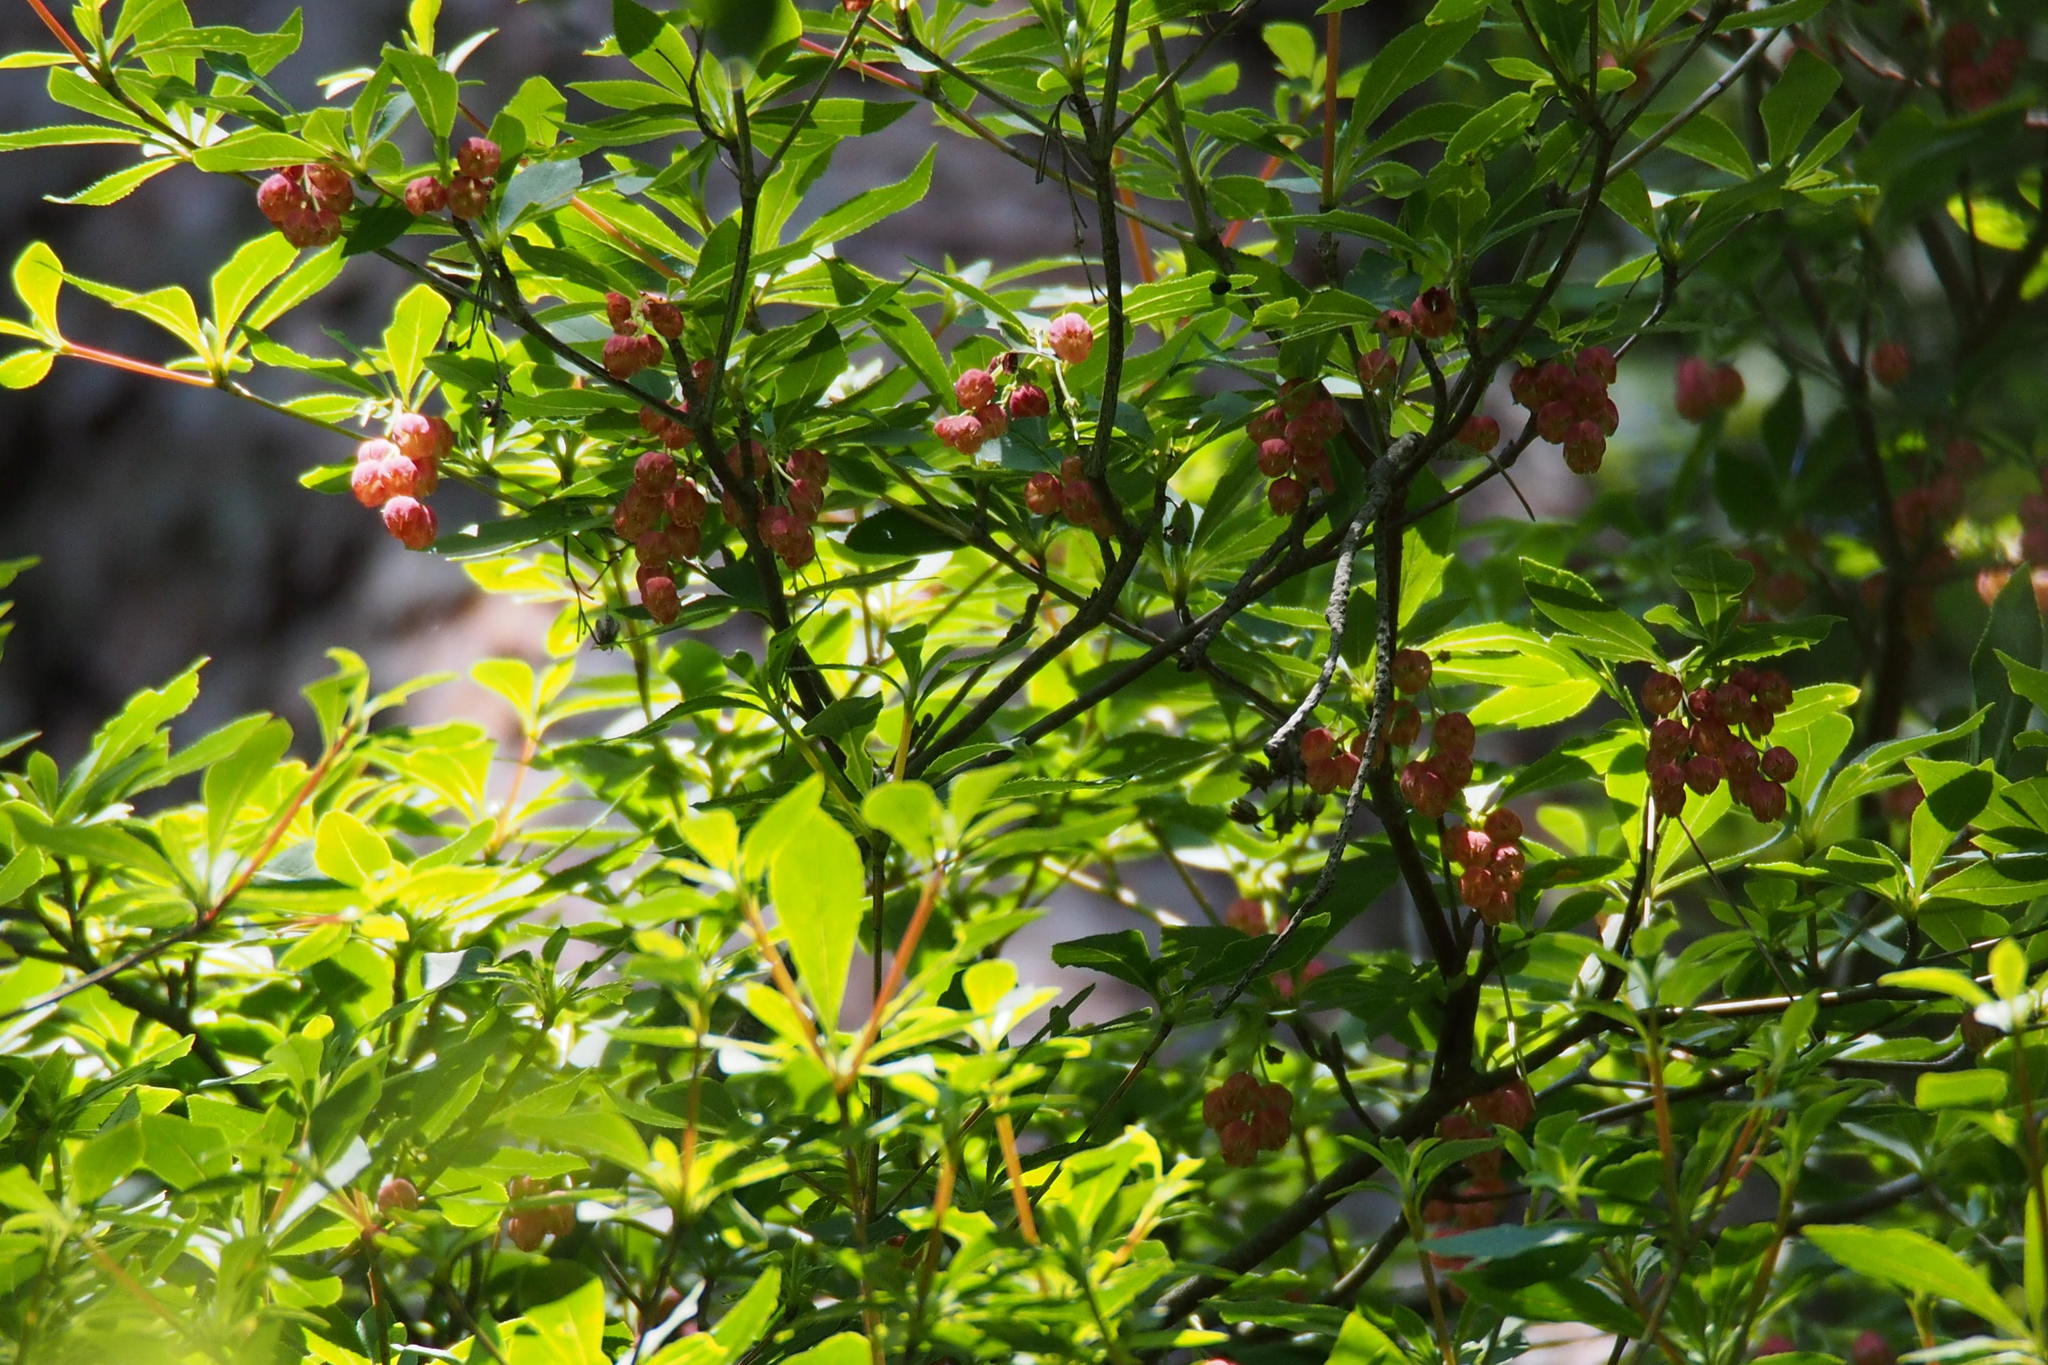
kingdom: Plantae
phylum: Tracheophyta
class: Magnoliopsida
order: Ericales
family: Ericaceae
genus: Enkianthus
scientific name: Enkianthus cernuus
